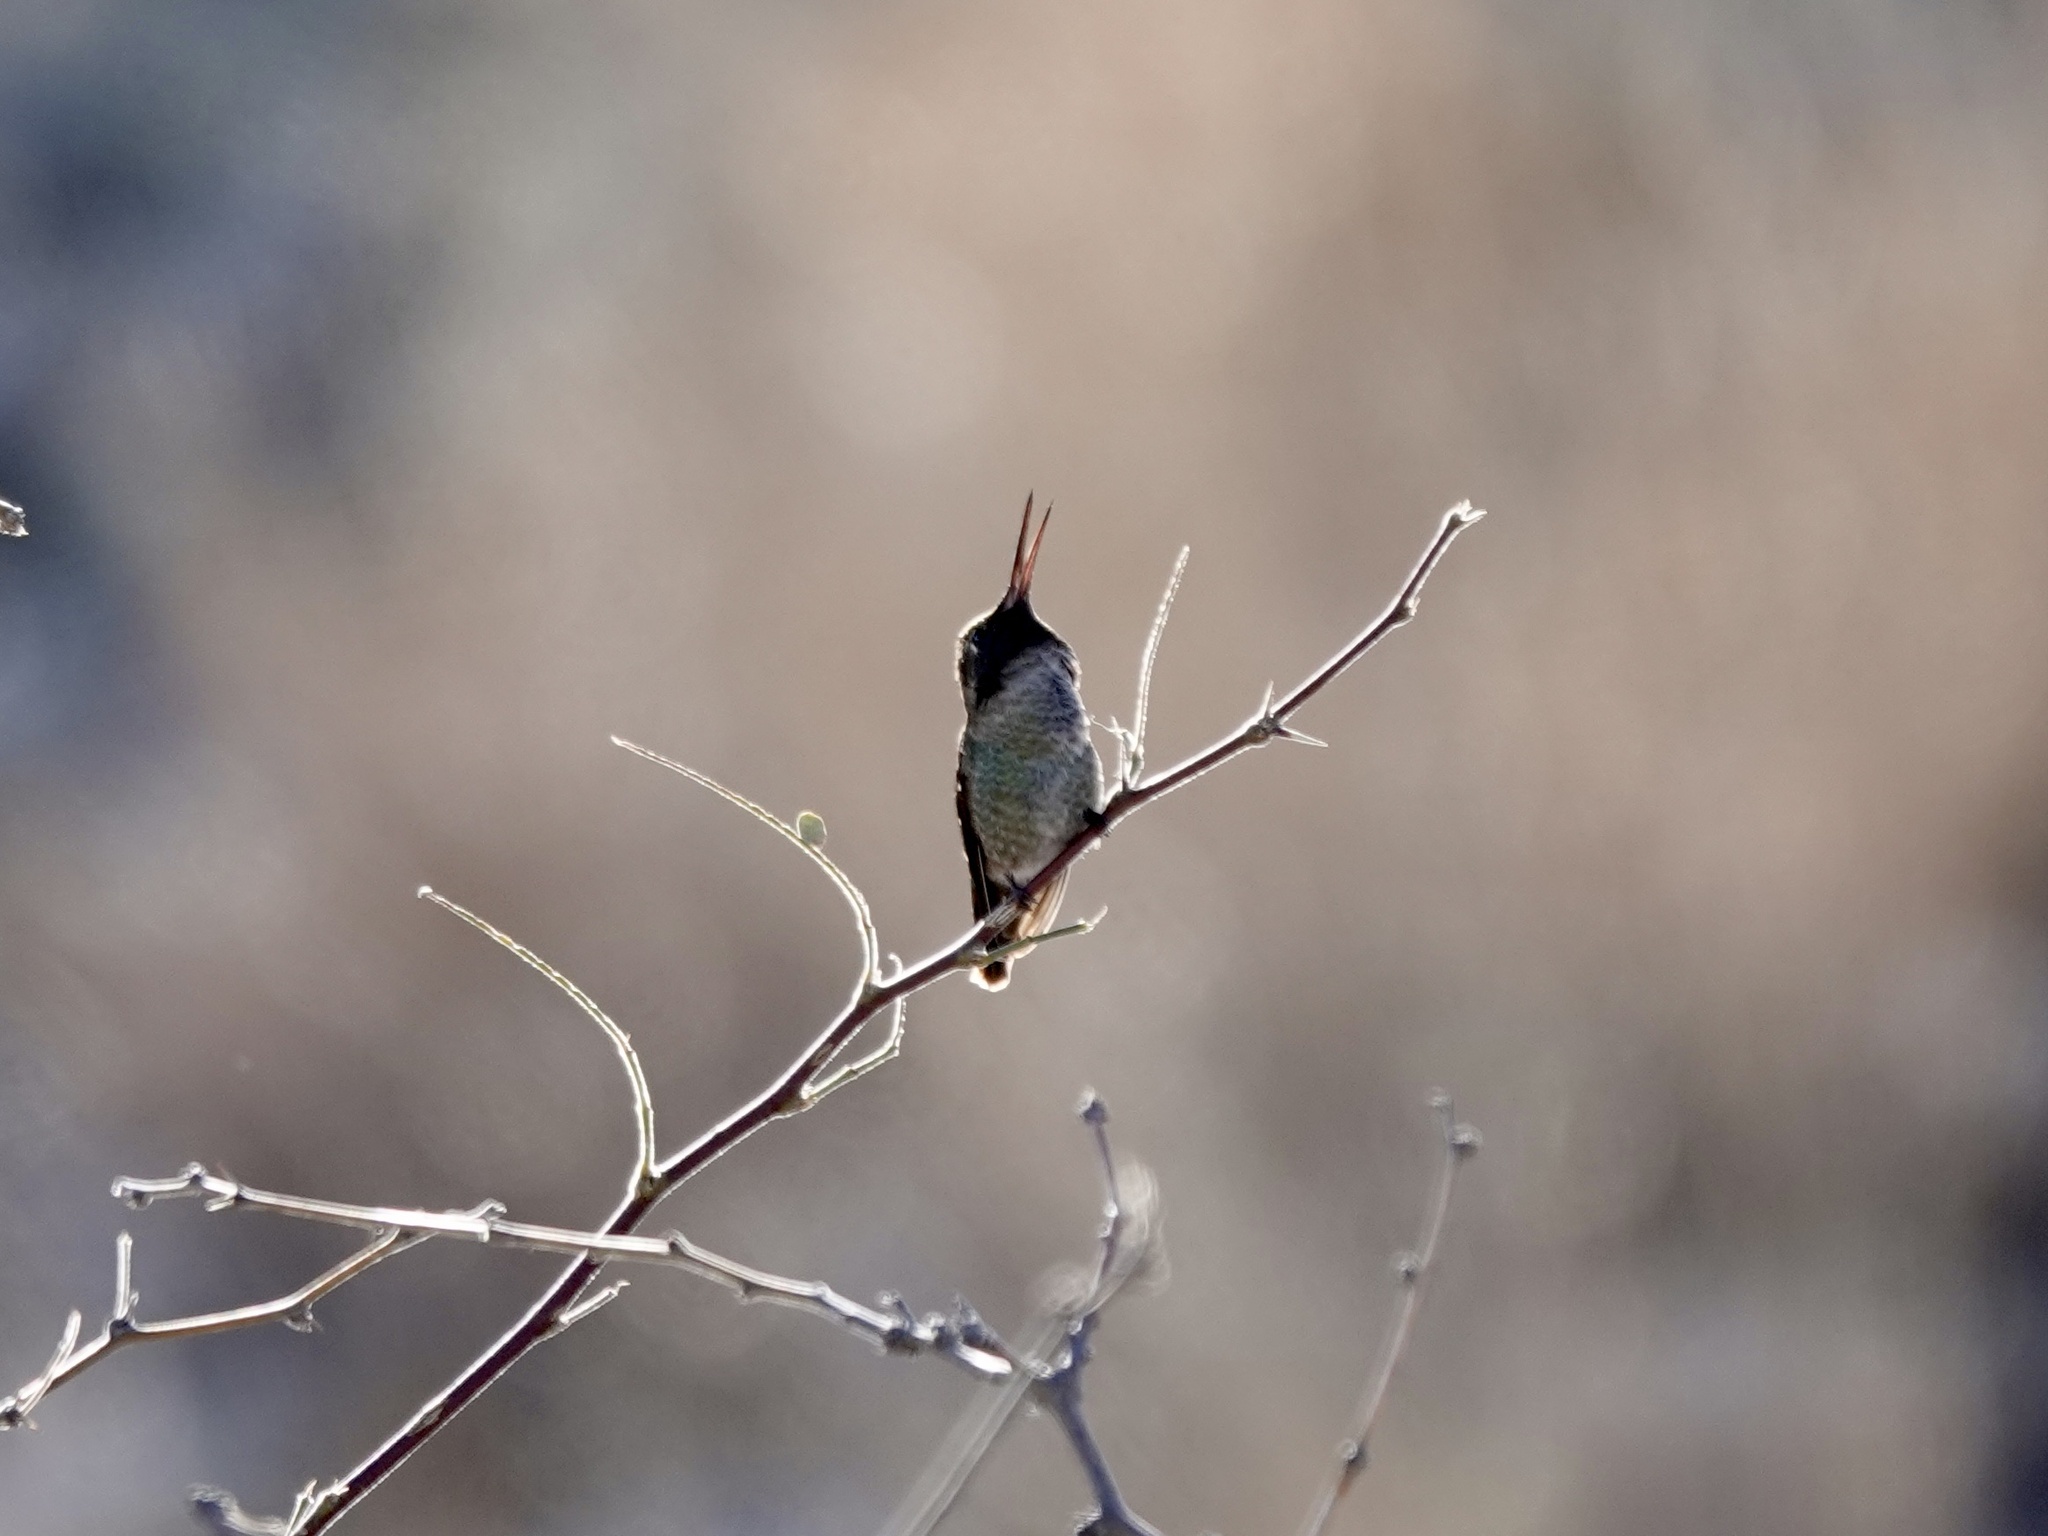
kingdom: Animalia
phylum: Chordata
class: Aves
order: Apodiformes
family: Trochilidae
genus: Calypte
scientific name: Calypte costae
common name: Costa's hummingbird
